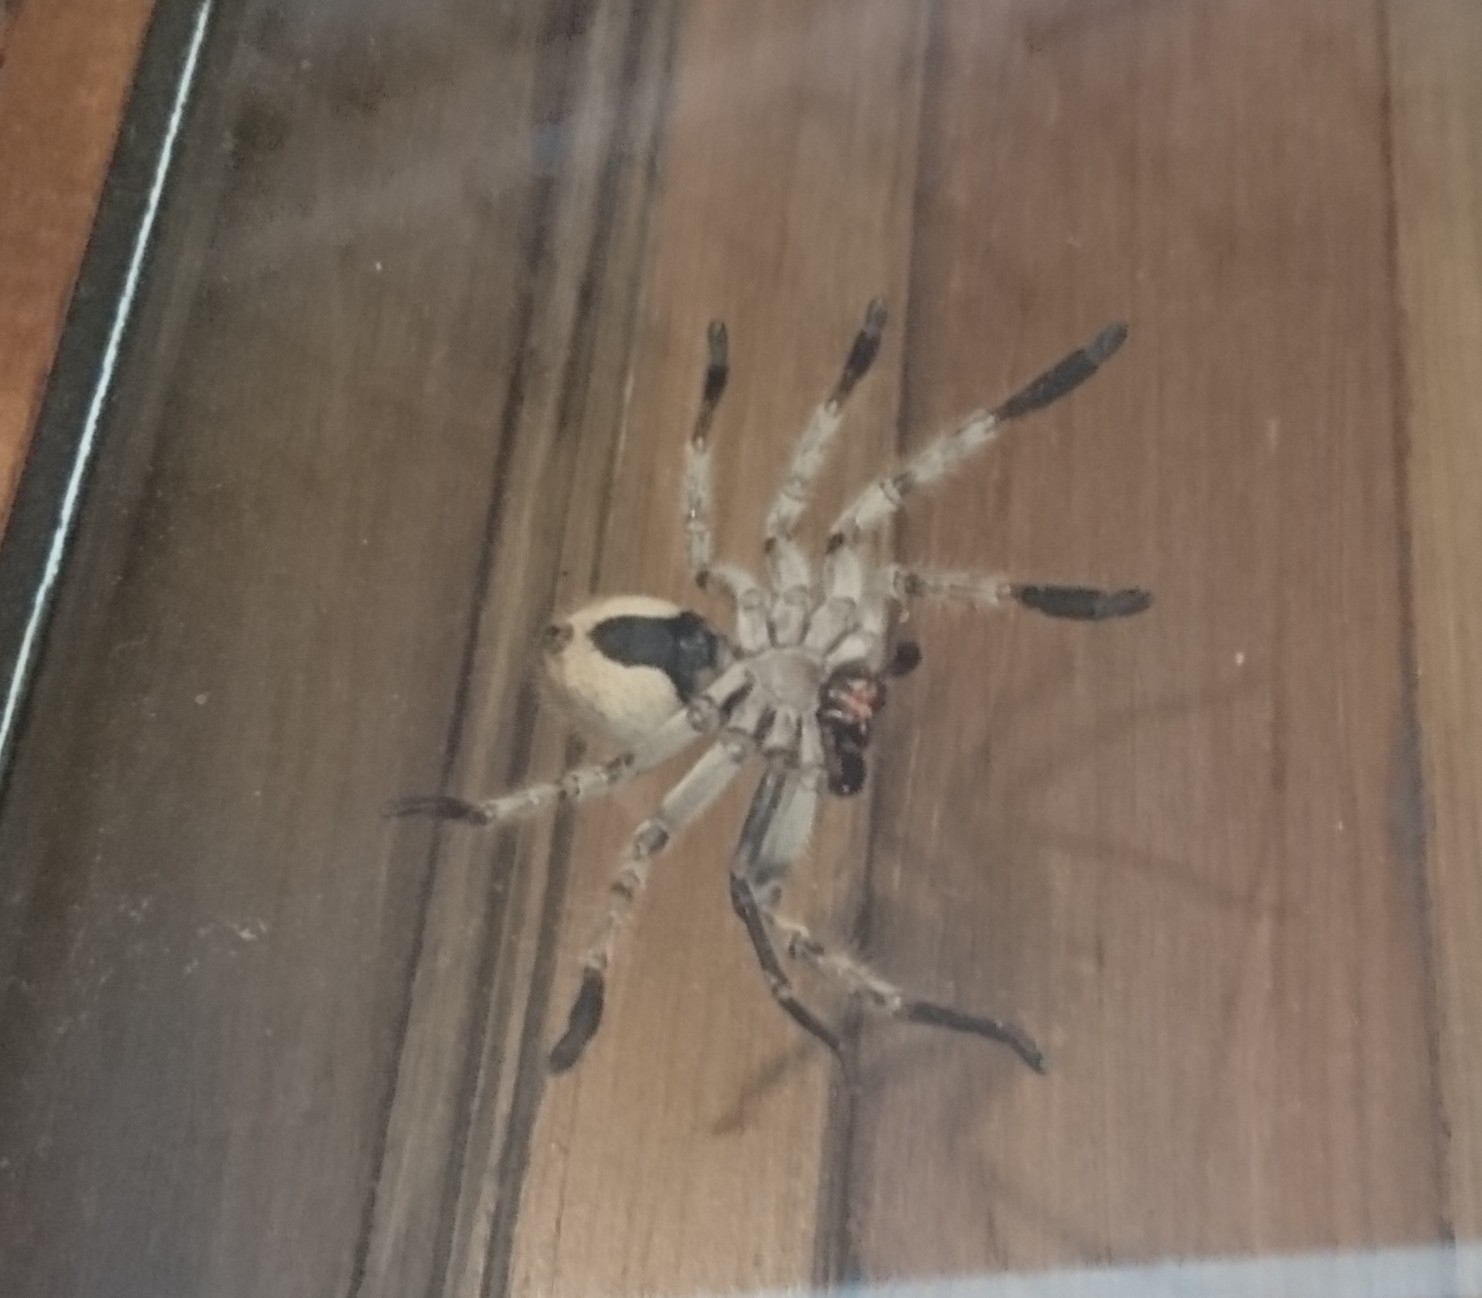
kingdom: Animalia
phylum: Arthropoda
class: Arachnida
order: Araneae
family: Sparassidae
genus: Polybetes
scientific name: Polybetes pythagoricus
